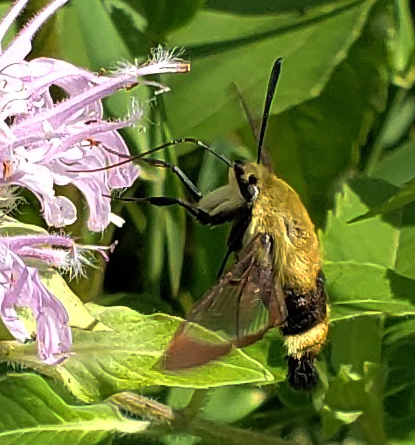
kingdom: Animalia
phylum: Arthropoda
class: Insecta
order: Lepidoptera
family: Sphingidae
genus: Hemaris
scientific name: Hemaris diffinis
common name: Bumblebee moth
